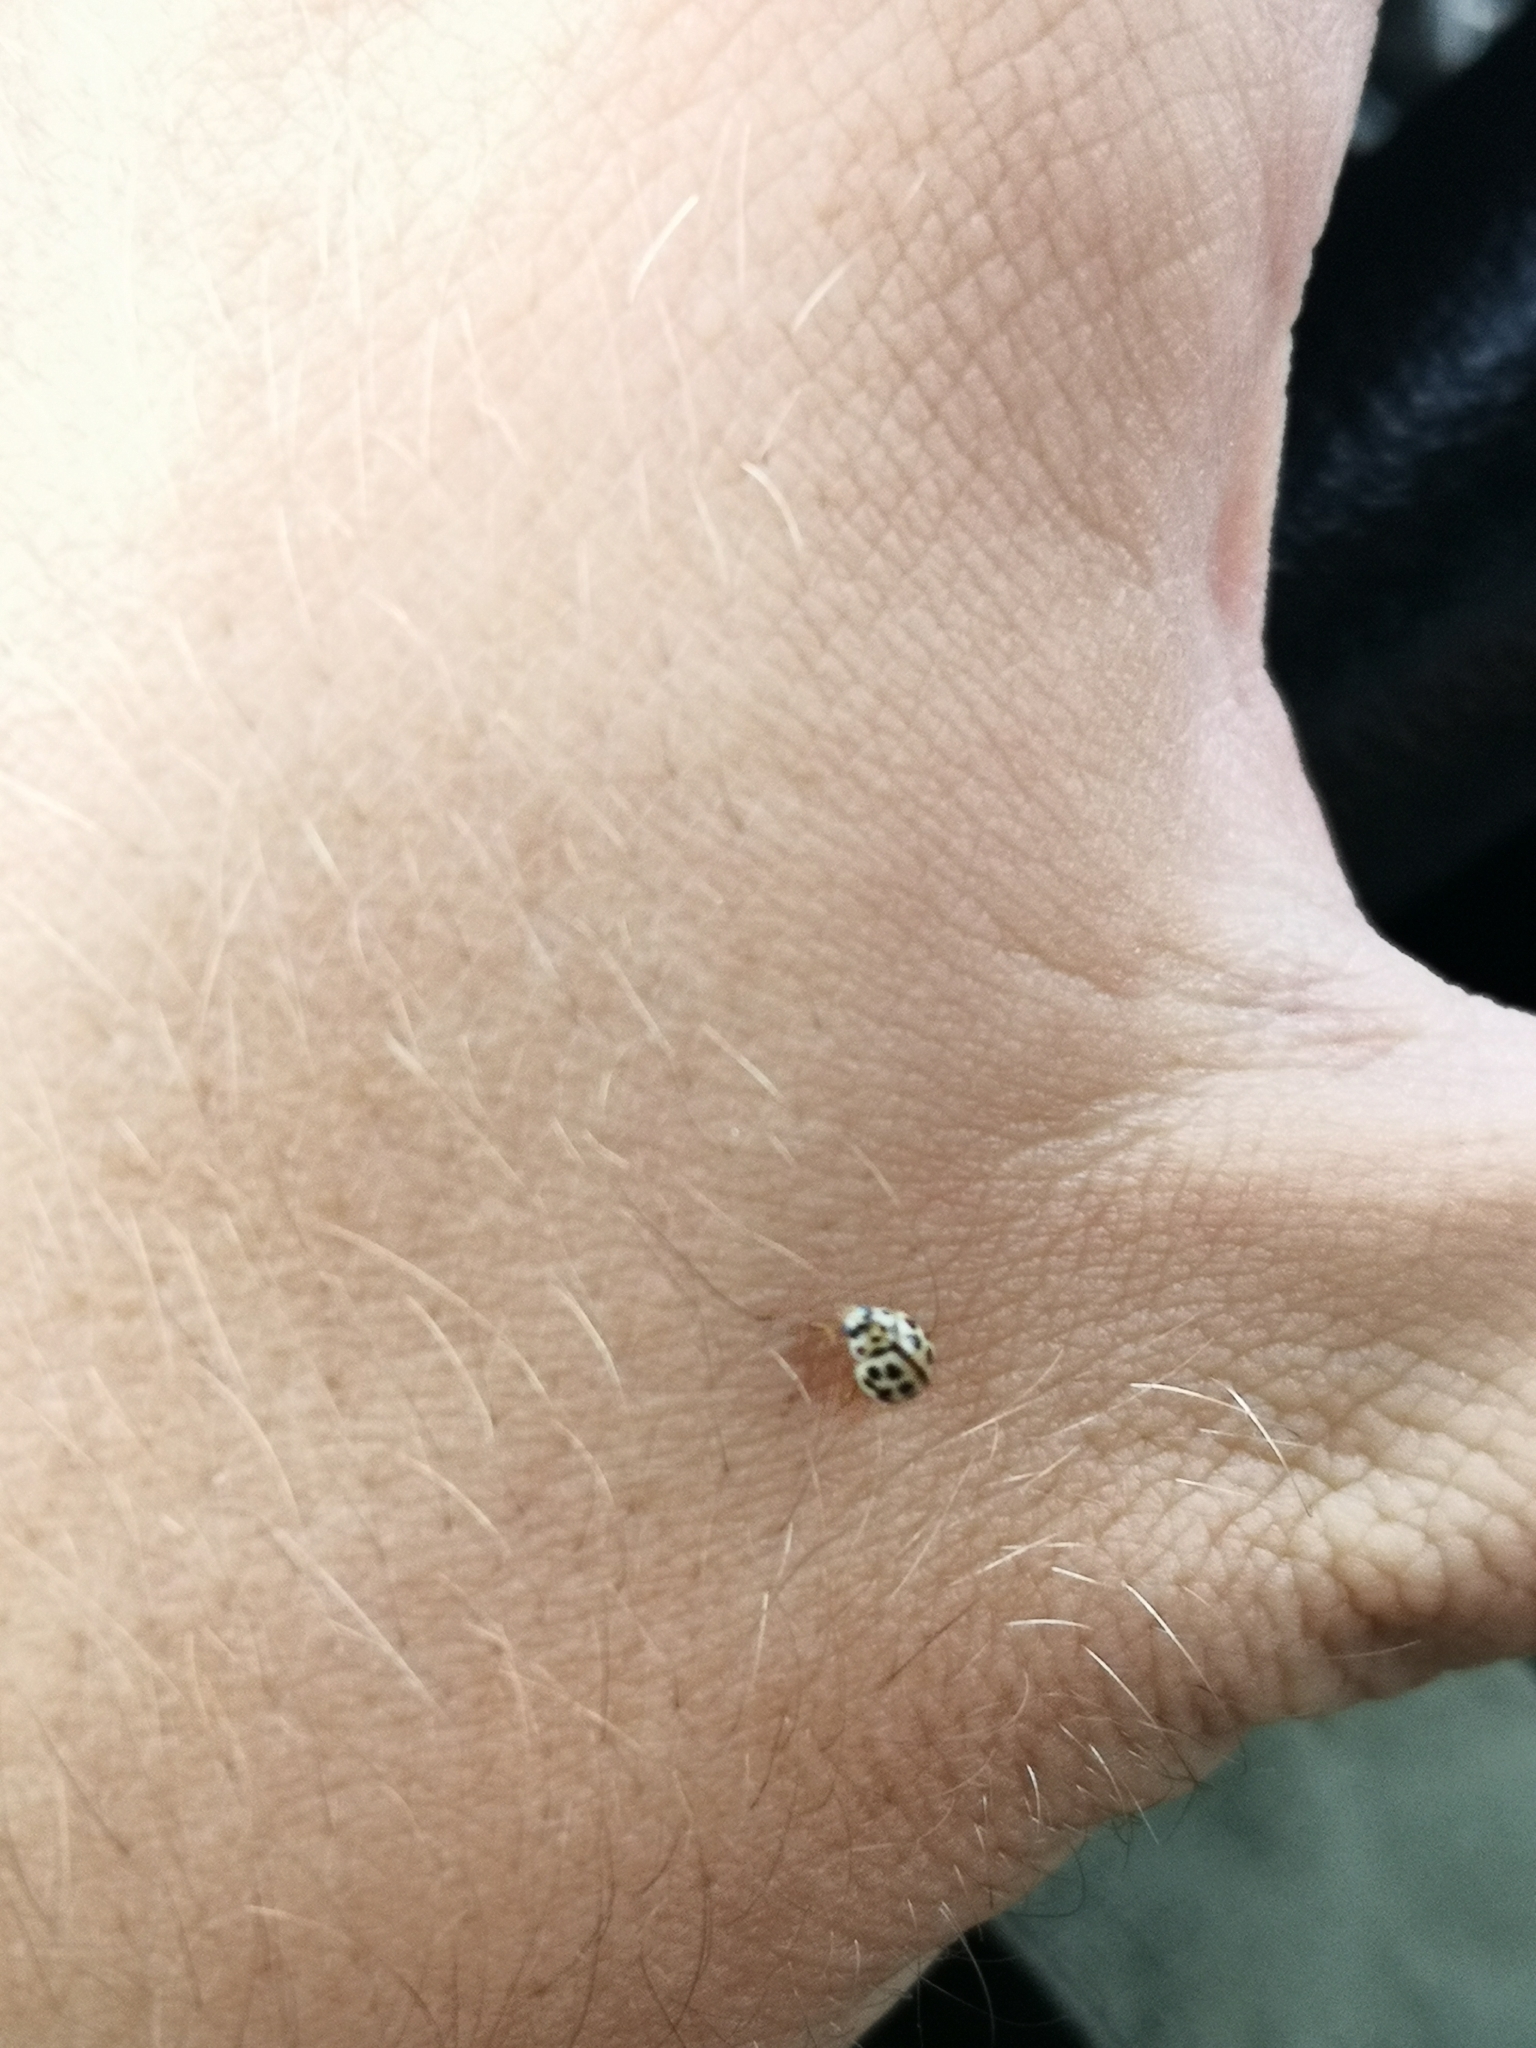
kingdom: Animalia
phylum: Arthropoda
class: Insecta
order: Coleoptera
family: Coccinellidae
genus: Tytthaspis
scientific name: Tytthaspis sedecimpunctata
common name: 16-spot ladybird
